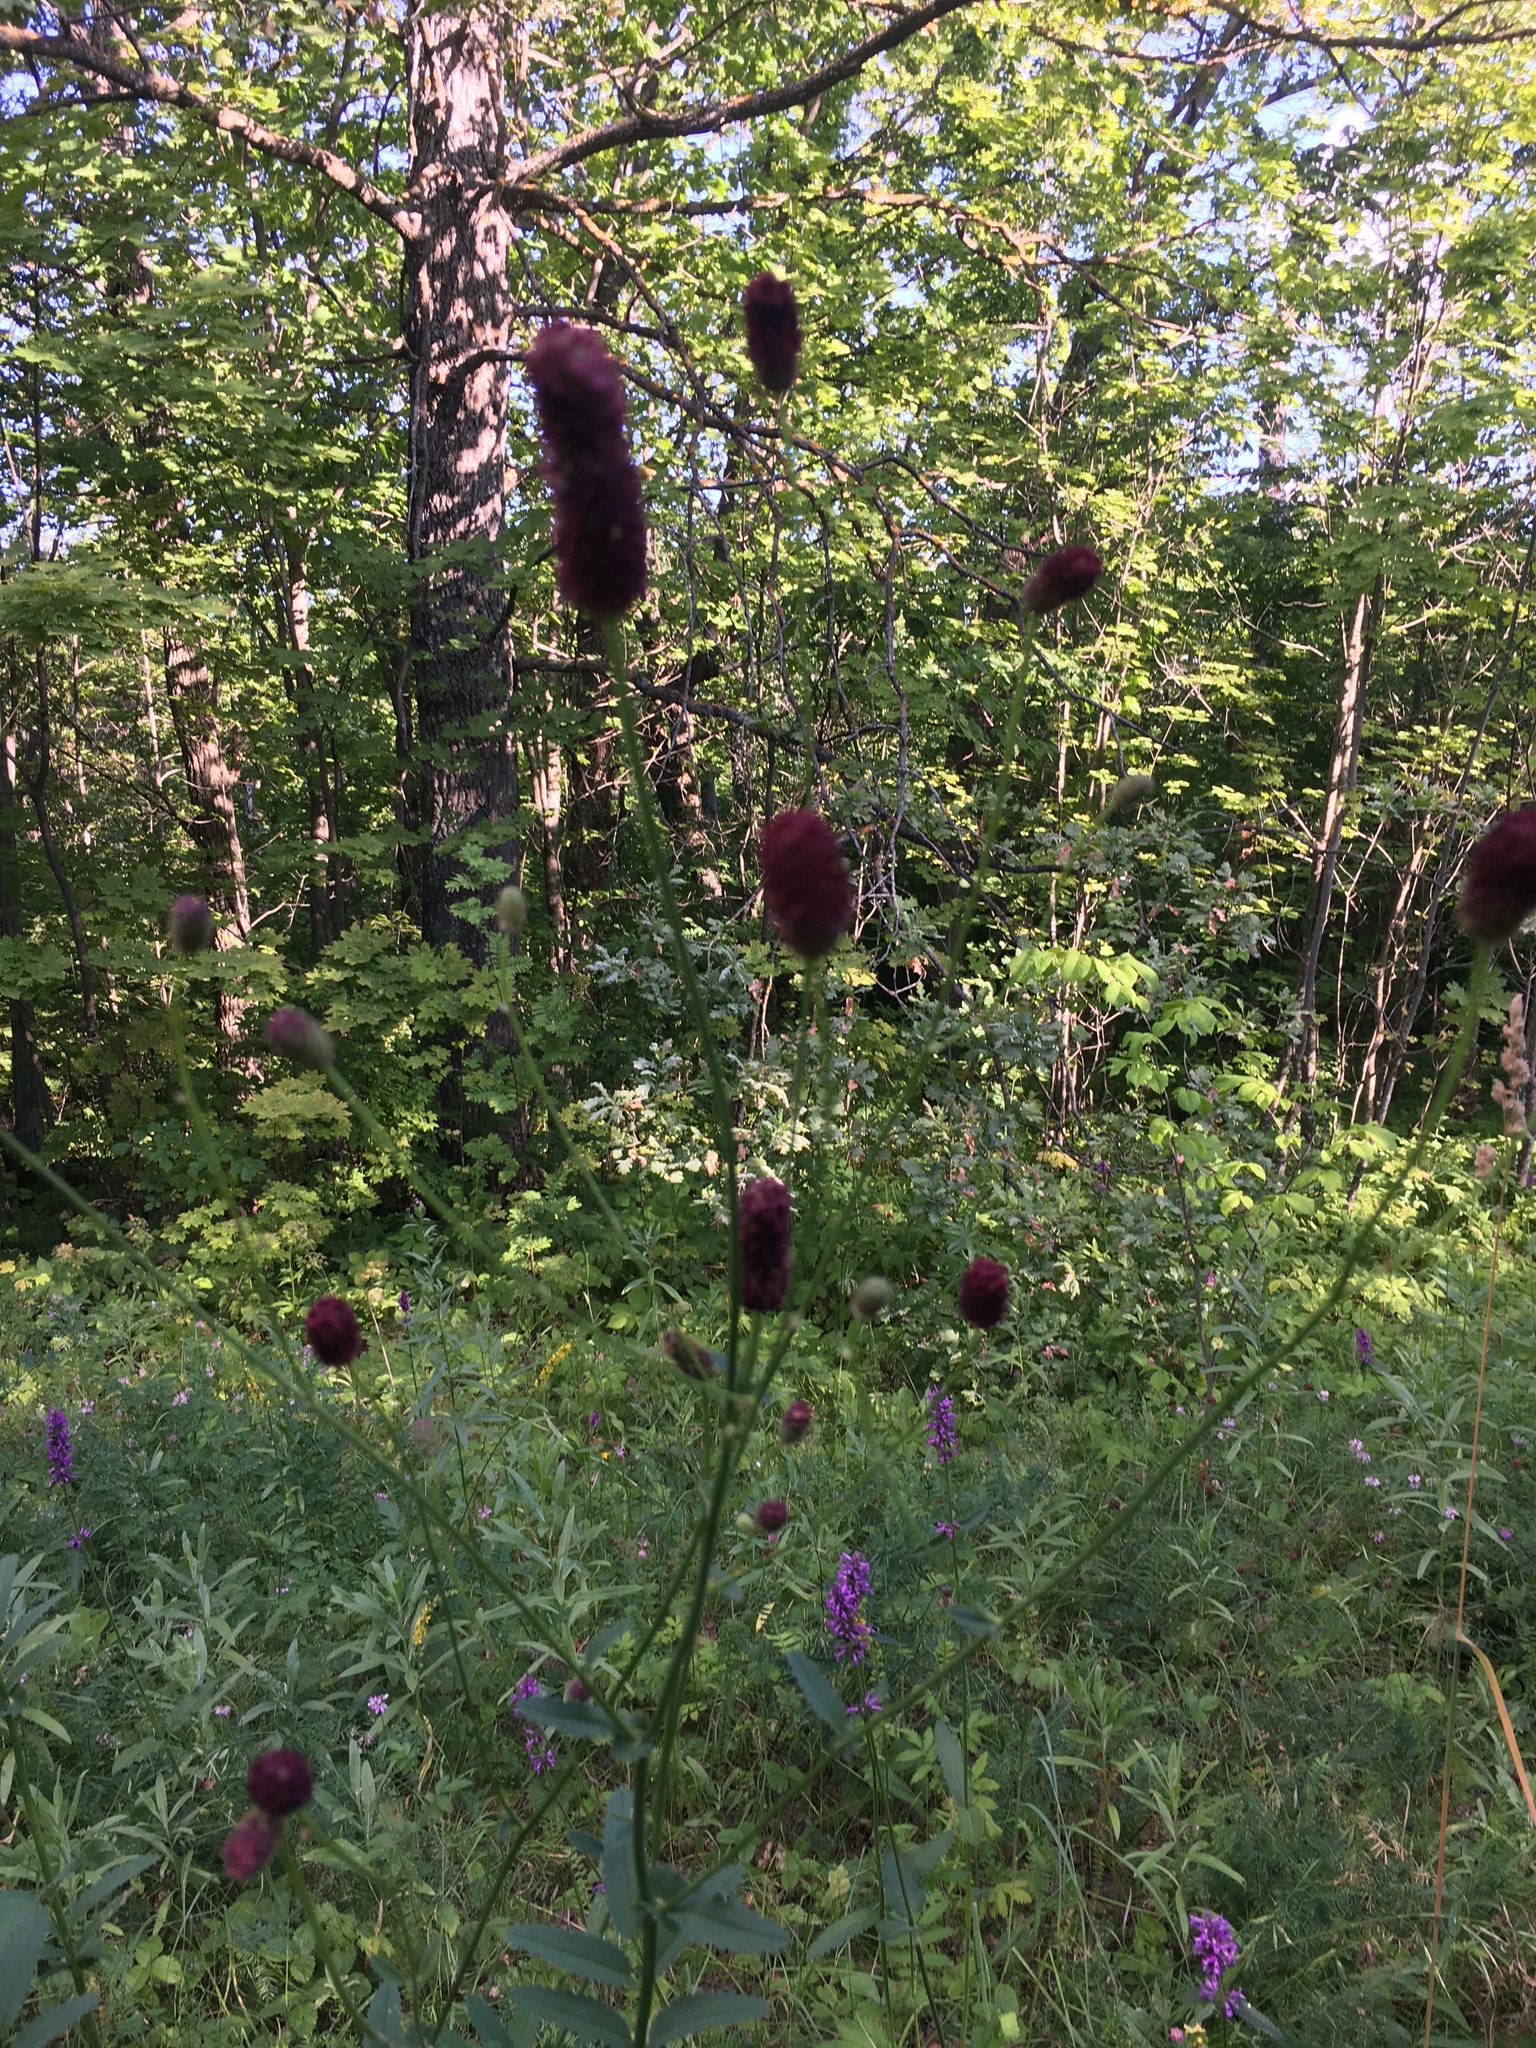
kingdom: Plantae
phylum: Tracheophyta
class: Magnoliopsida
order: Rosales
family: Rosaceae
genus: Sanguisorba
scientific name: Sanguisorba officinalis
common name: Great burnet
